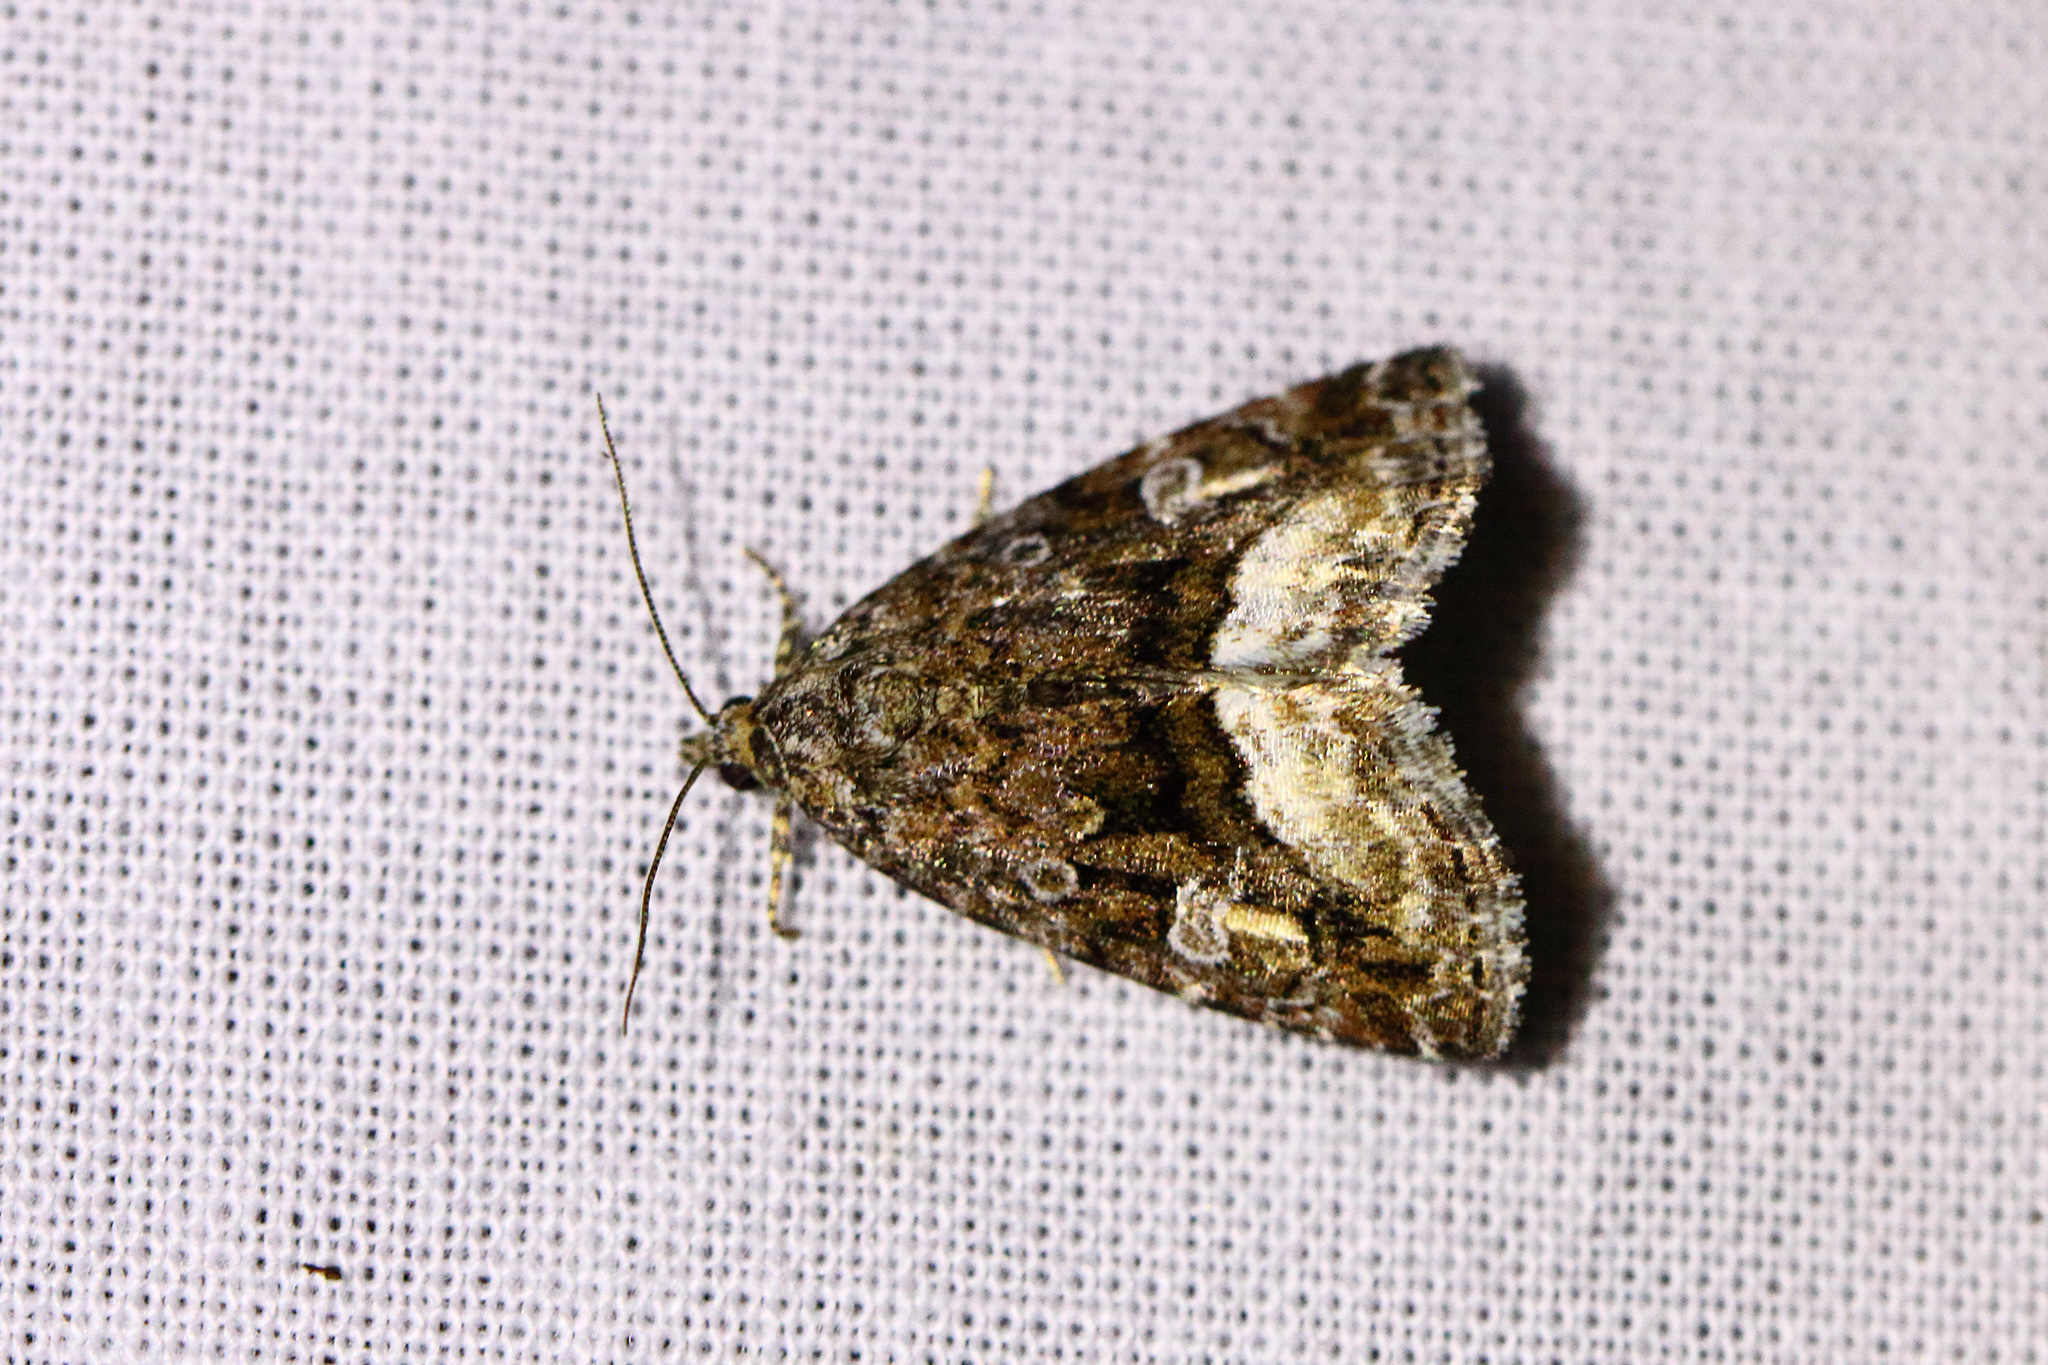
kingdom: Animalia
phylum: Arthropoda
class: Insecta
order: Lepidoptera
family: Noctuidae
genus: Deltote
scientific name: Deltote pygarga
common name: Marbled white spot
